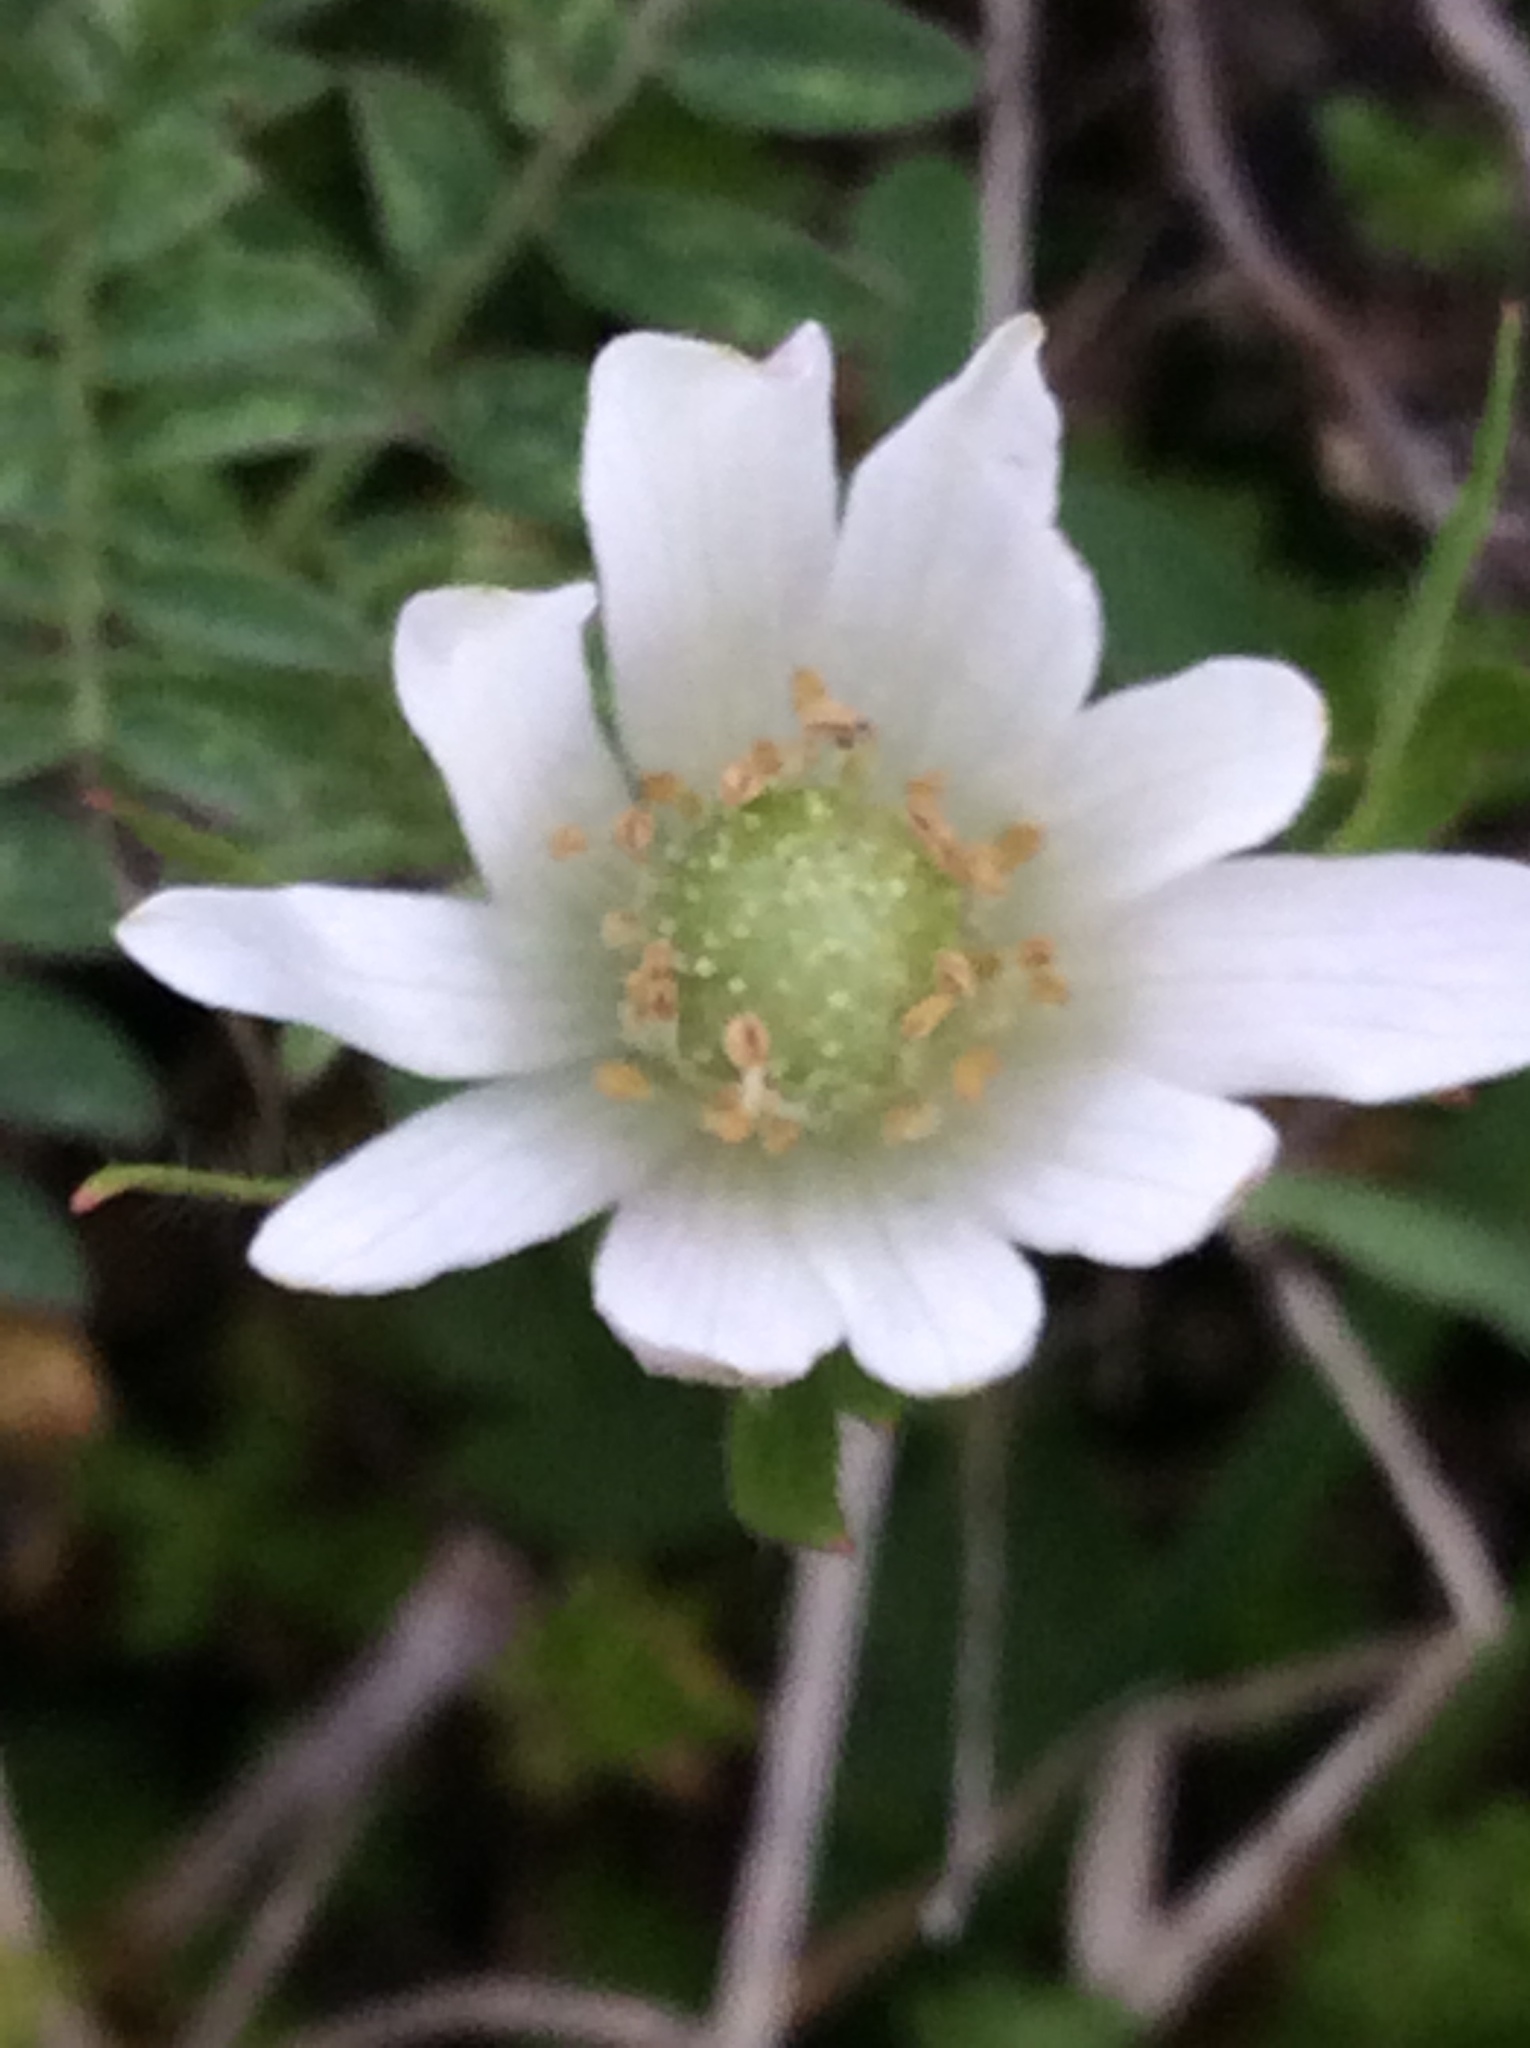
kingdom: Plantae
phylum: Tracheophyta
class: Magnoliopsida
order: Ranunculales
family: Ranunculaceae
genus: Anemone
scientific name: Anemone berlandieri
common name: Ten-petal anemone
